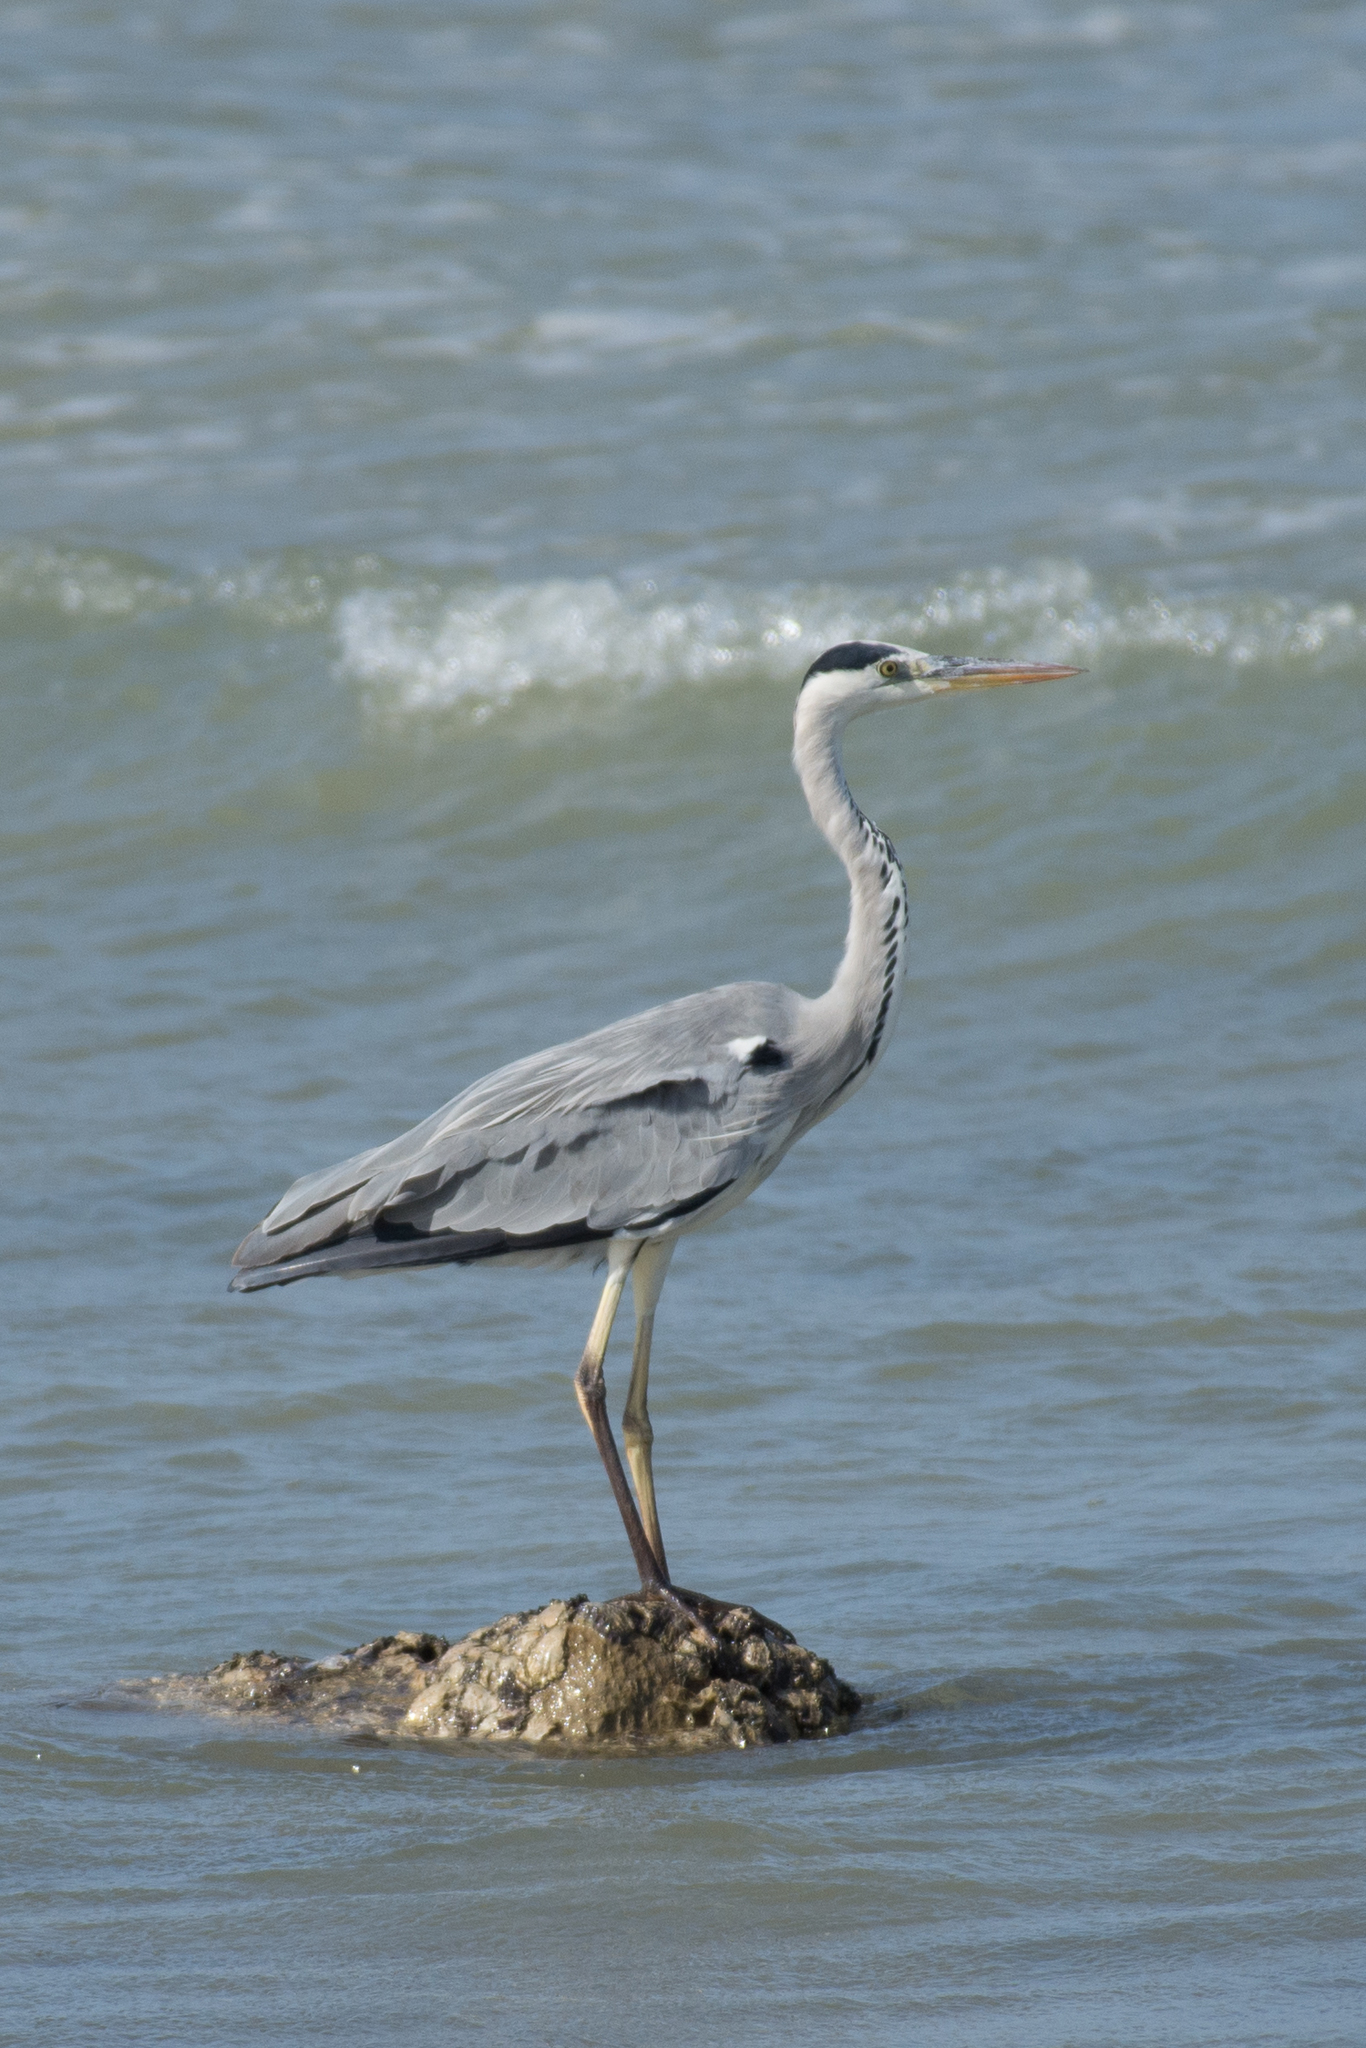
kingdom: Animalia
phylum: Chordata
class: Aves
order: Pelecaniformes
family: Ardeidae
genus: Ardea
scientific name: Ardea cinerea
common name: Grey heron
